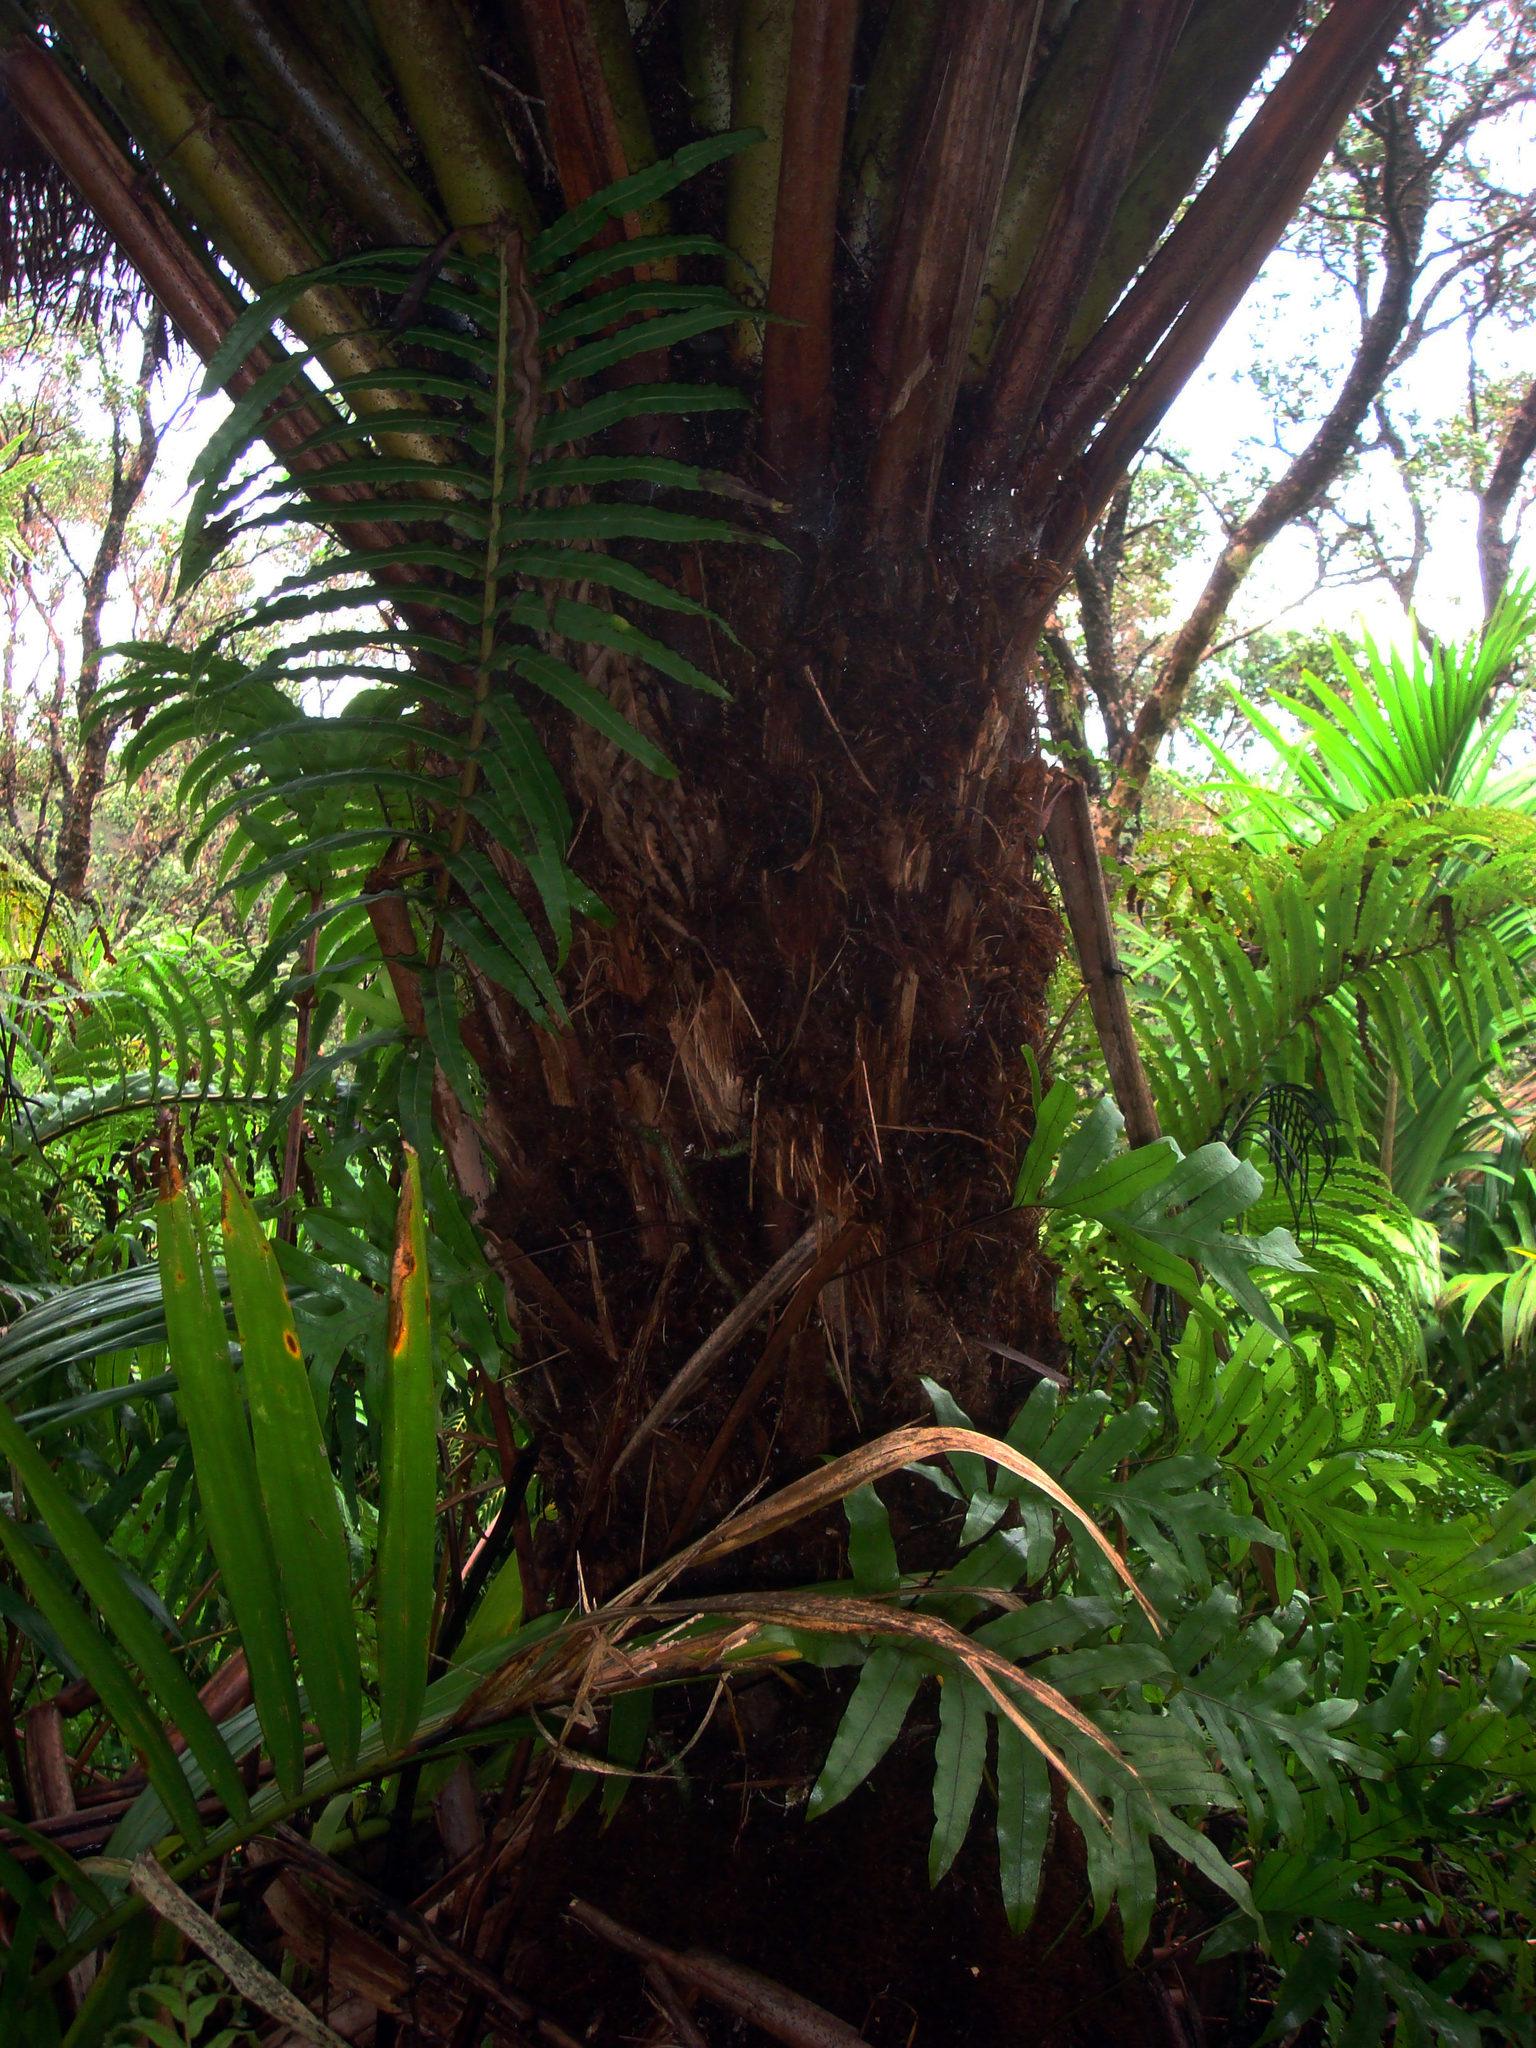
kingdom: Plantae
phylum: Tracheophyta
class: Polypodiopsida
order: Cyatheales
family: Cyatheaceae
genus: Alsophila
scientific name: Alsophila milnei
